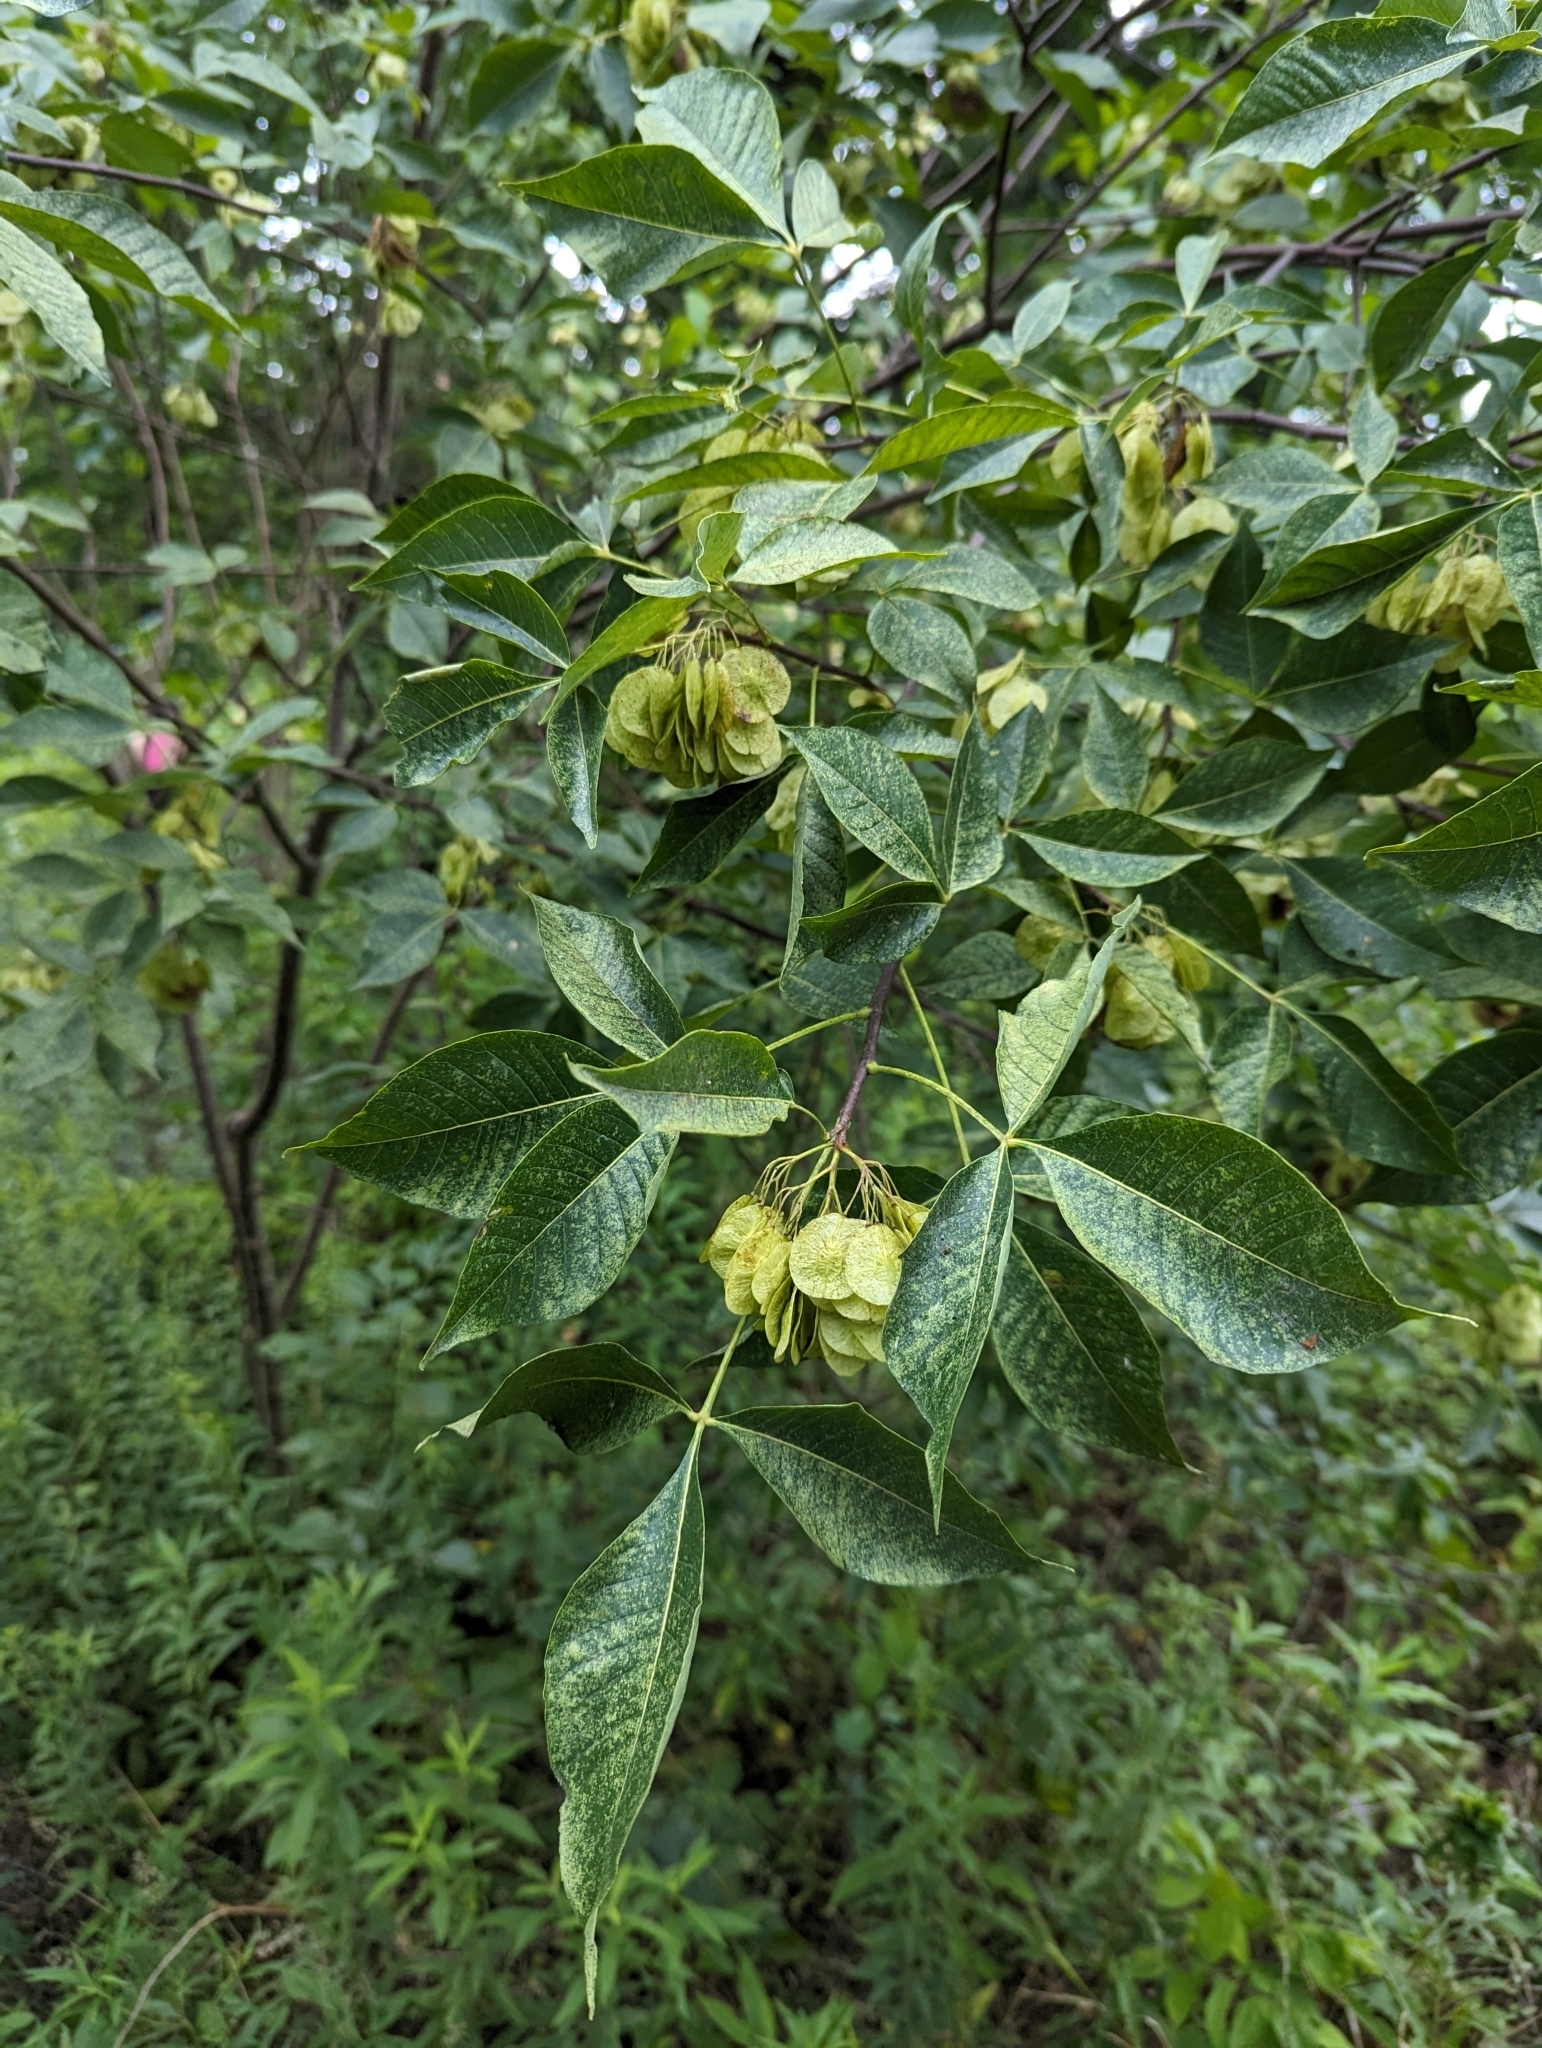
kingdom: Plantae
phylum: Tracheophyta
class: Magnoliopsida
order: Sapindales
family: Rutaceae
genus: Ptelea
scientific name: Ptelea trifoliata
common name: Common hop-tree
